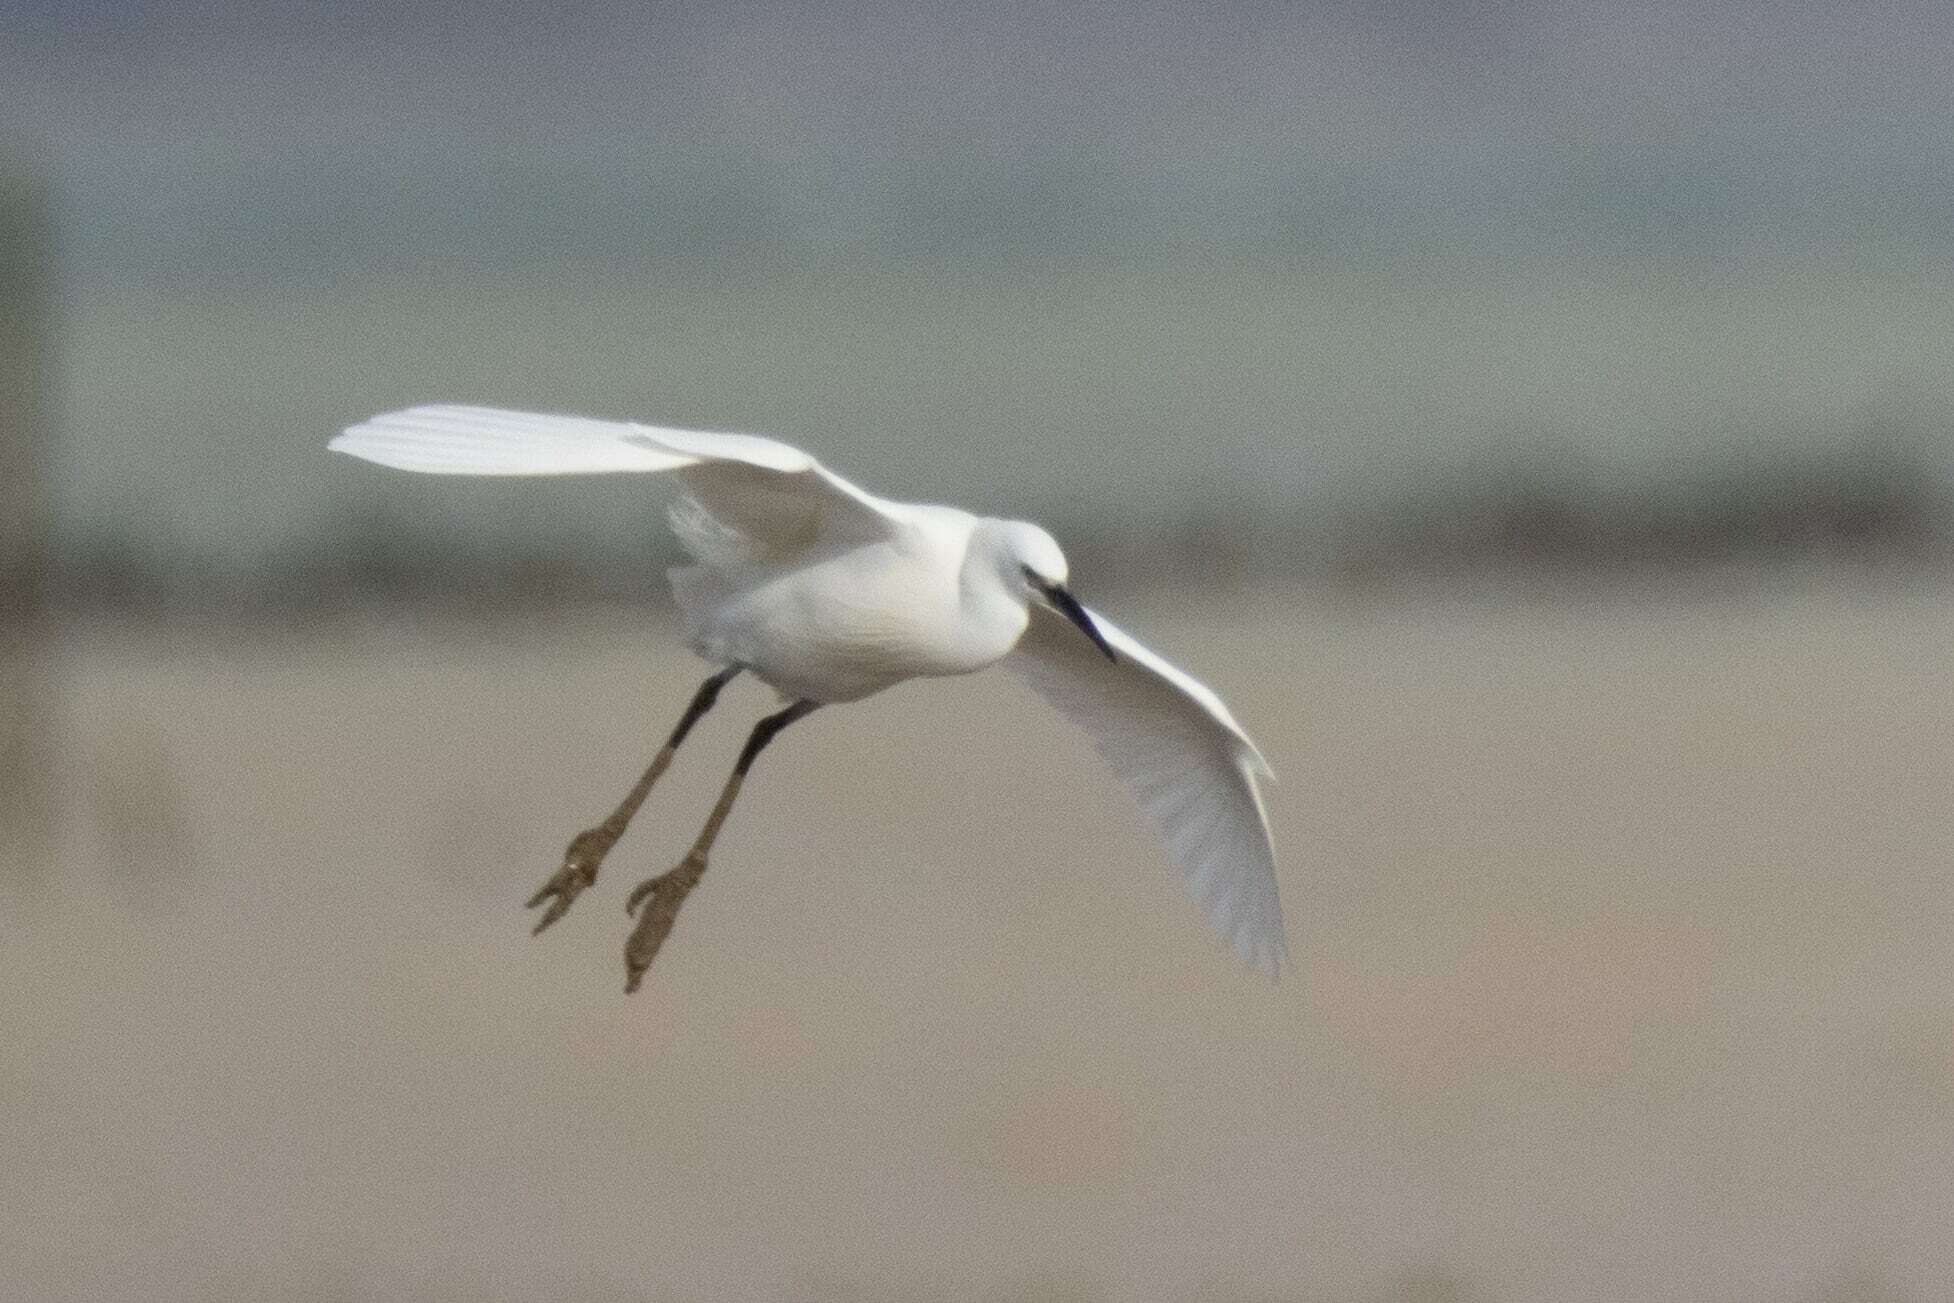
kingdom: Animalia
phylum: Chordata
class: Aves
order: Pelecaniformes
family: Ardeidae
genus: Egretta
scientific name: Egretta garzetta
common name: Little egret
